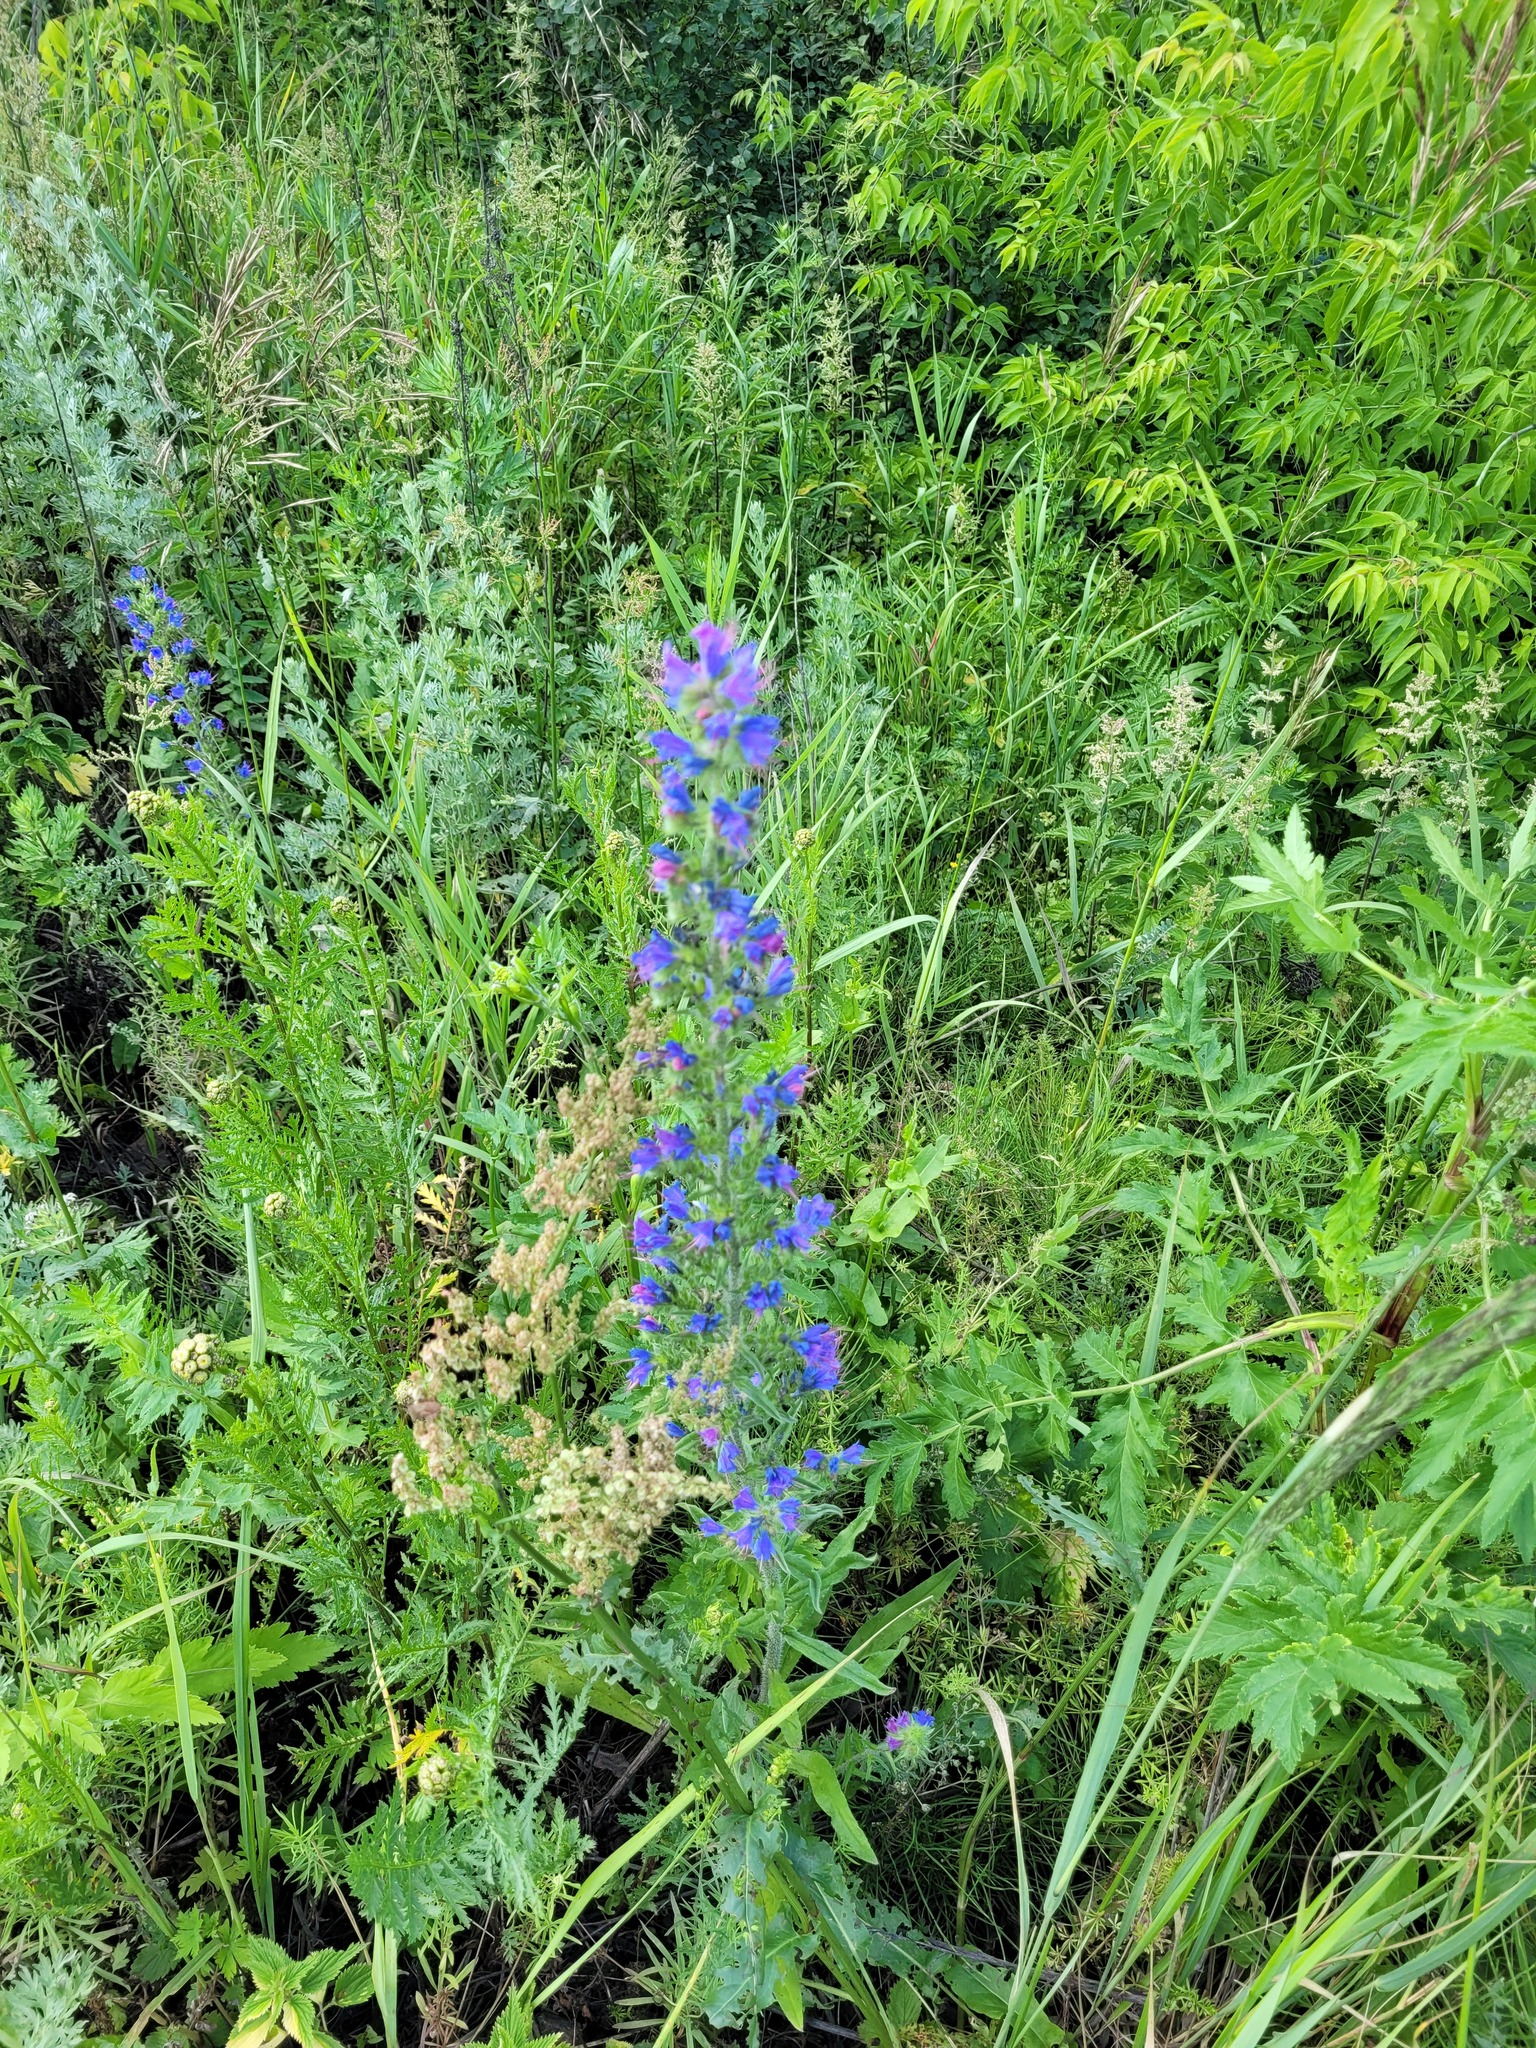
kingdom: Plantae
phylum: Tracheophyta
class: Magnoliopsida
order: Boraginales
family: Boraginaceae
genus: Echium
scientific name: Echium vulgare
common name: Common viper's bugloss
